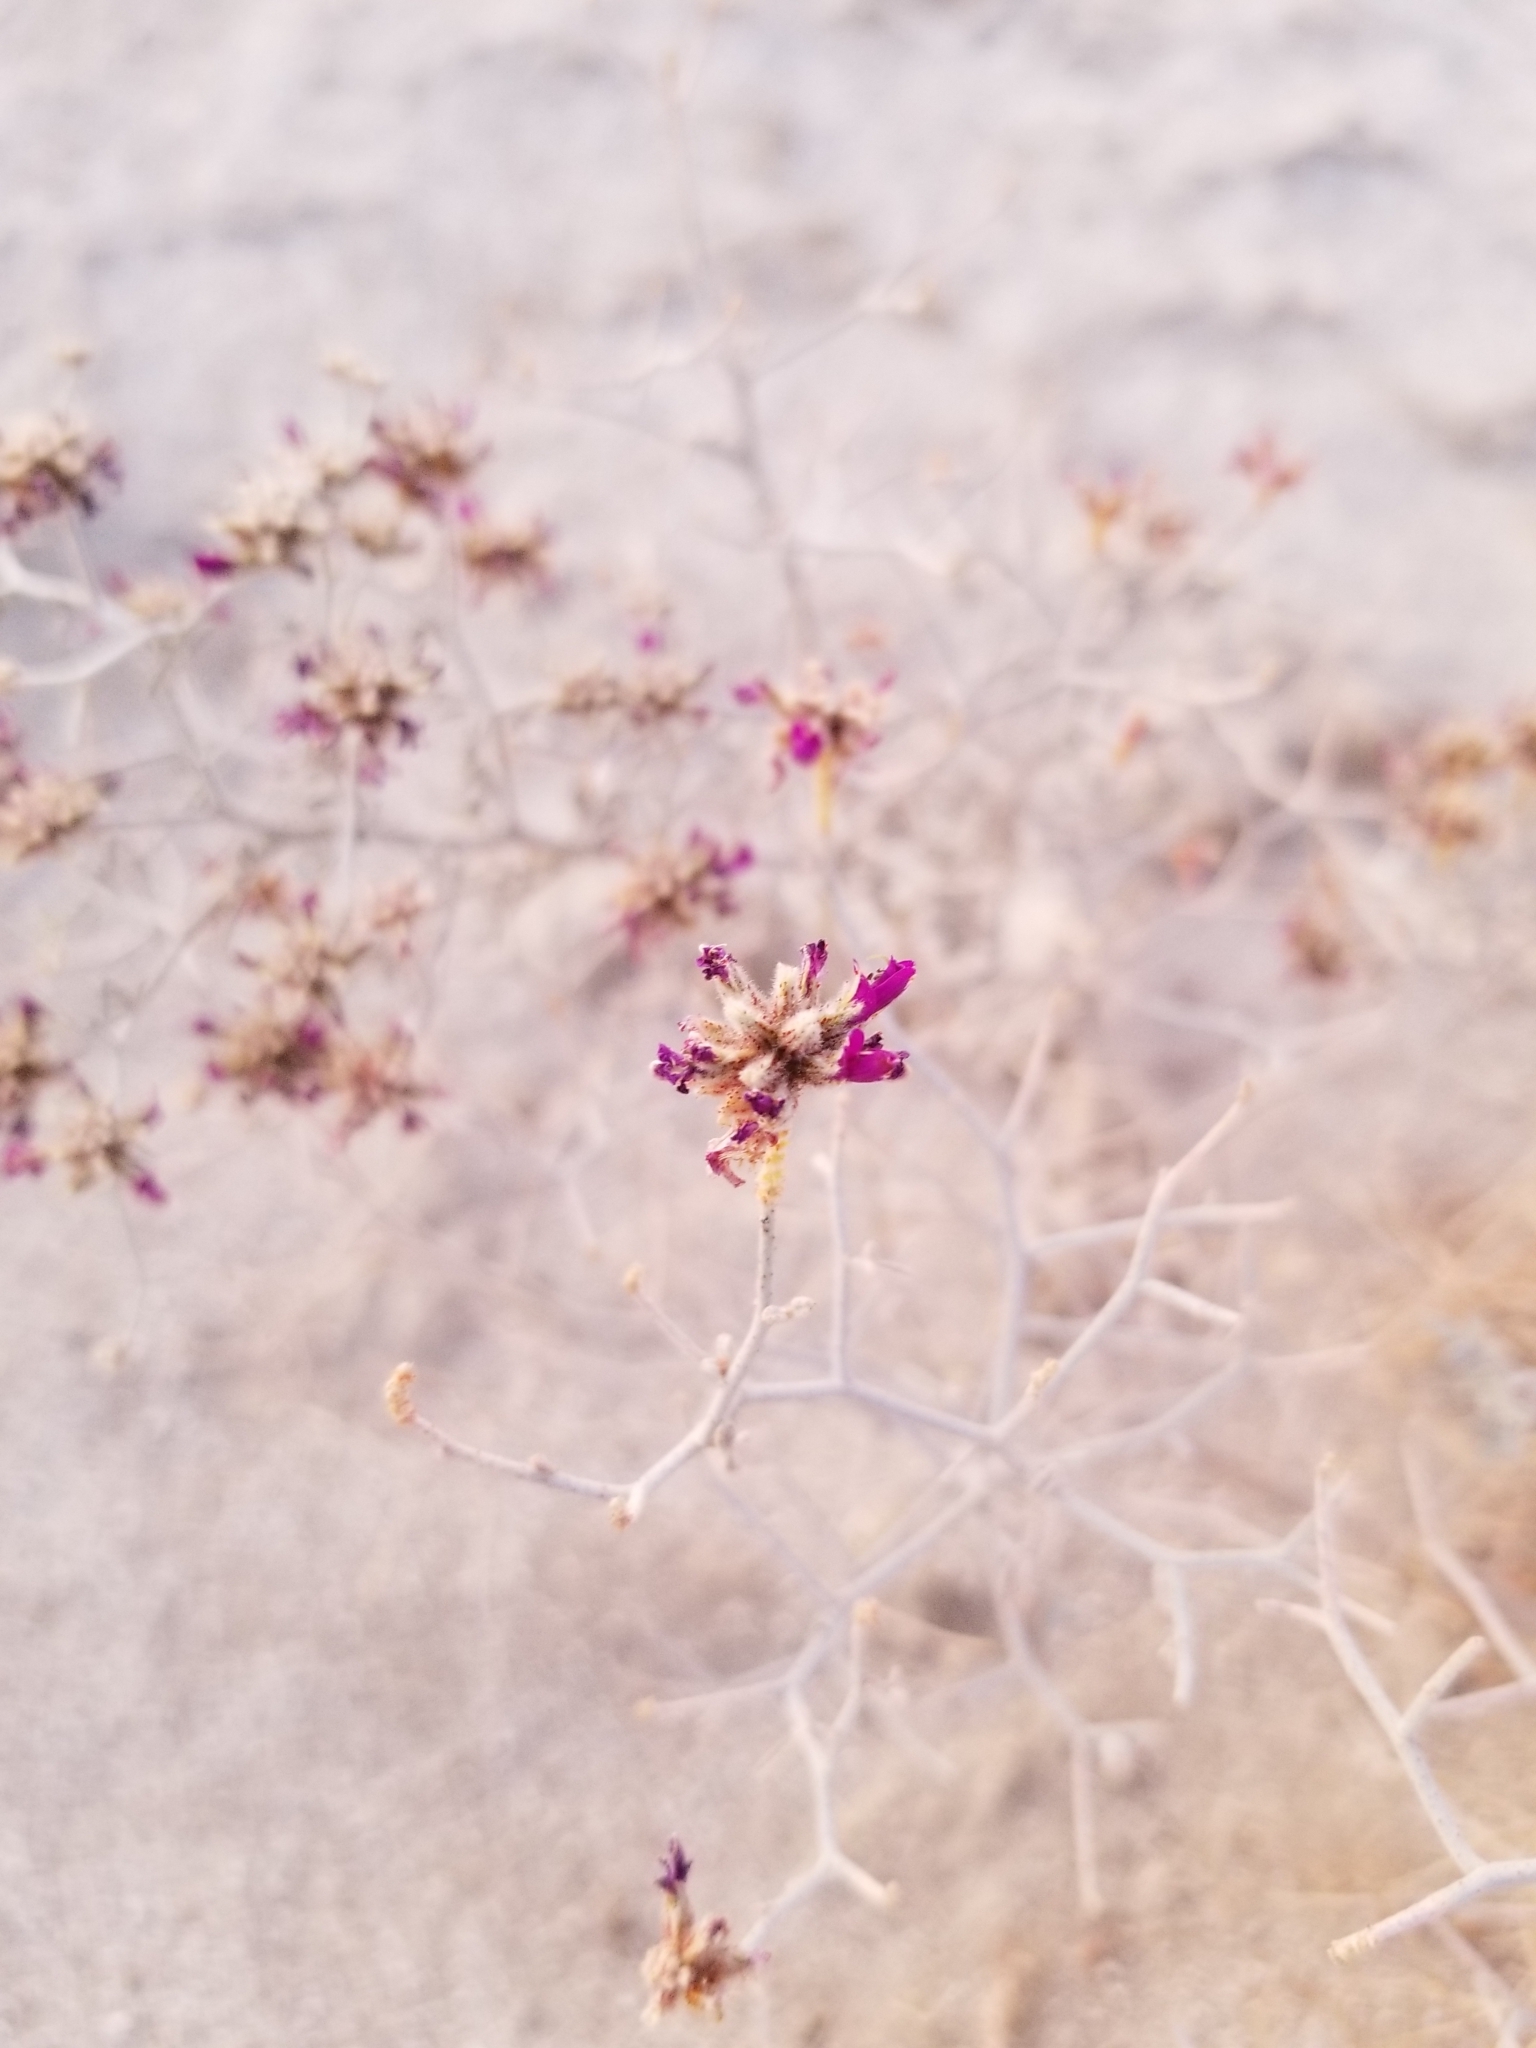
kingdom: Plantae
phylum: Tracheophyta
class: Magnoliopsida
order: Fabales
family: Fabaceae
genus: Psorothamnus
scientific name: Psorothamnus emoryi
